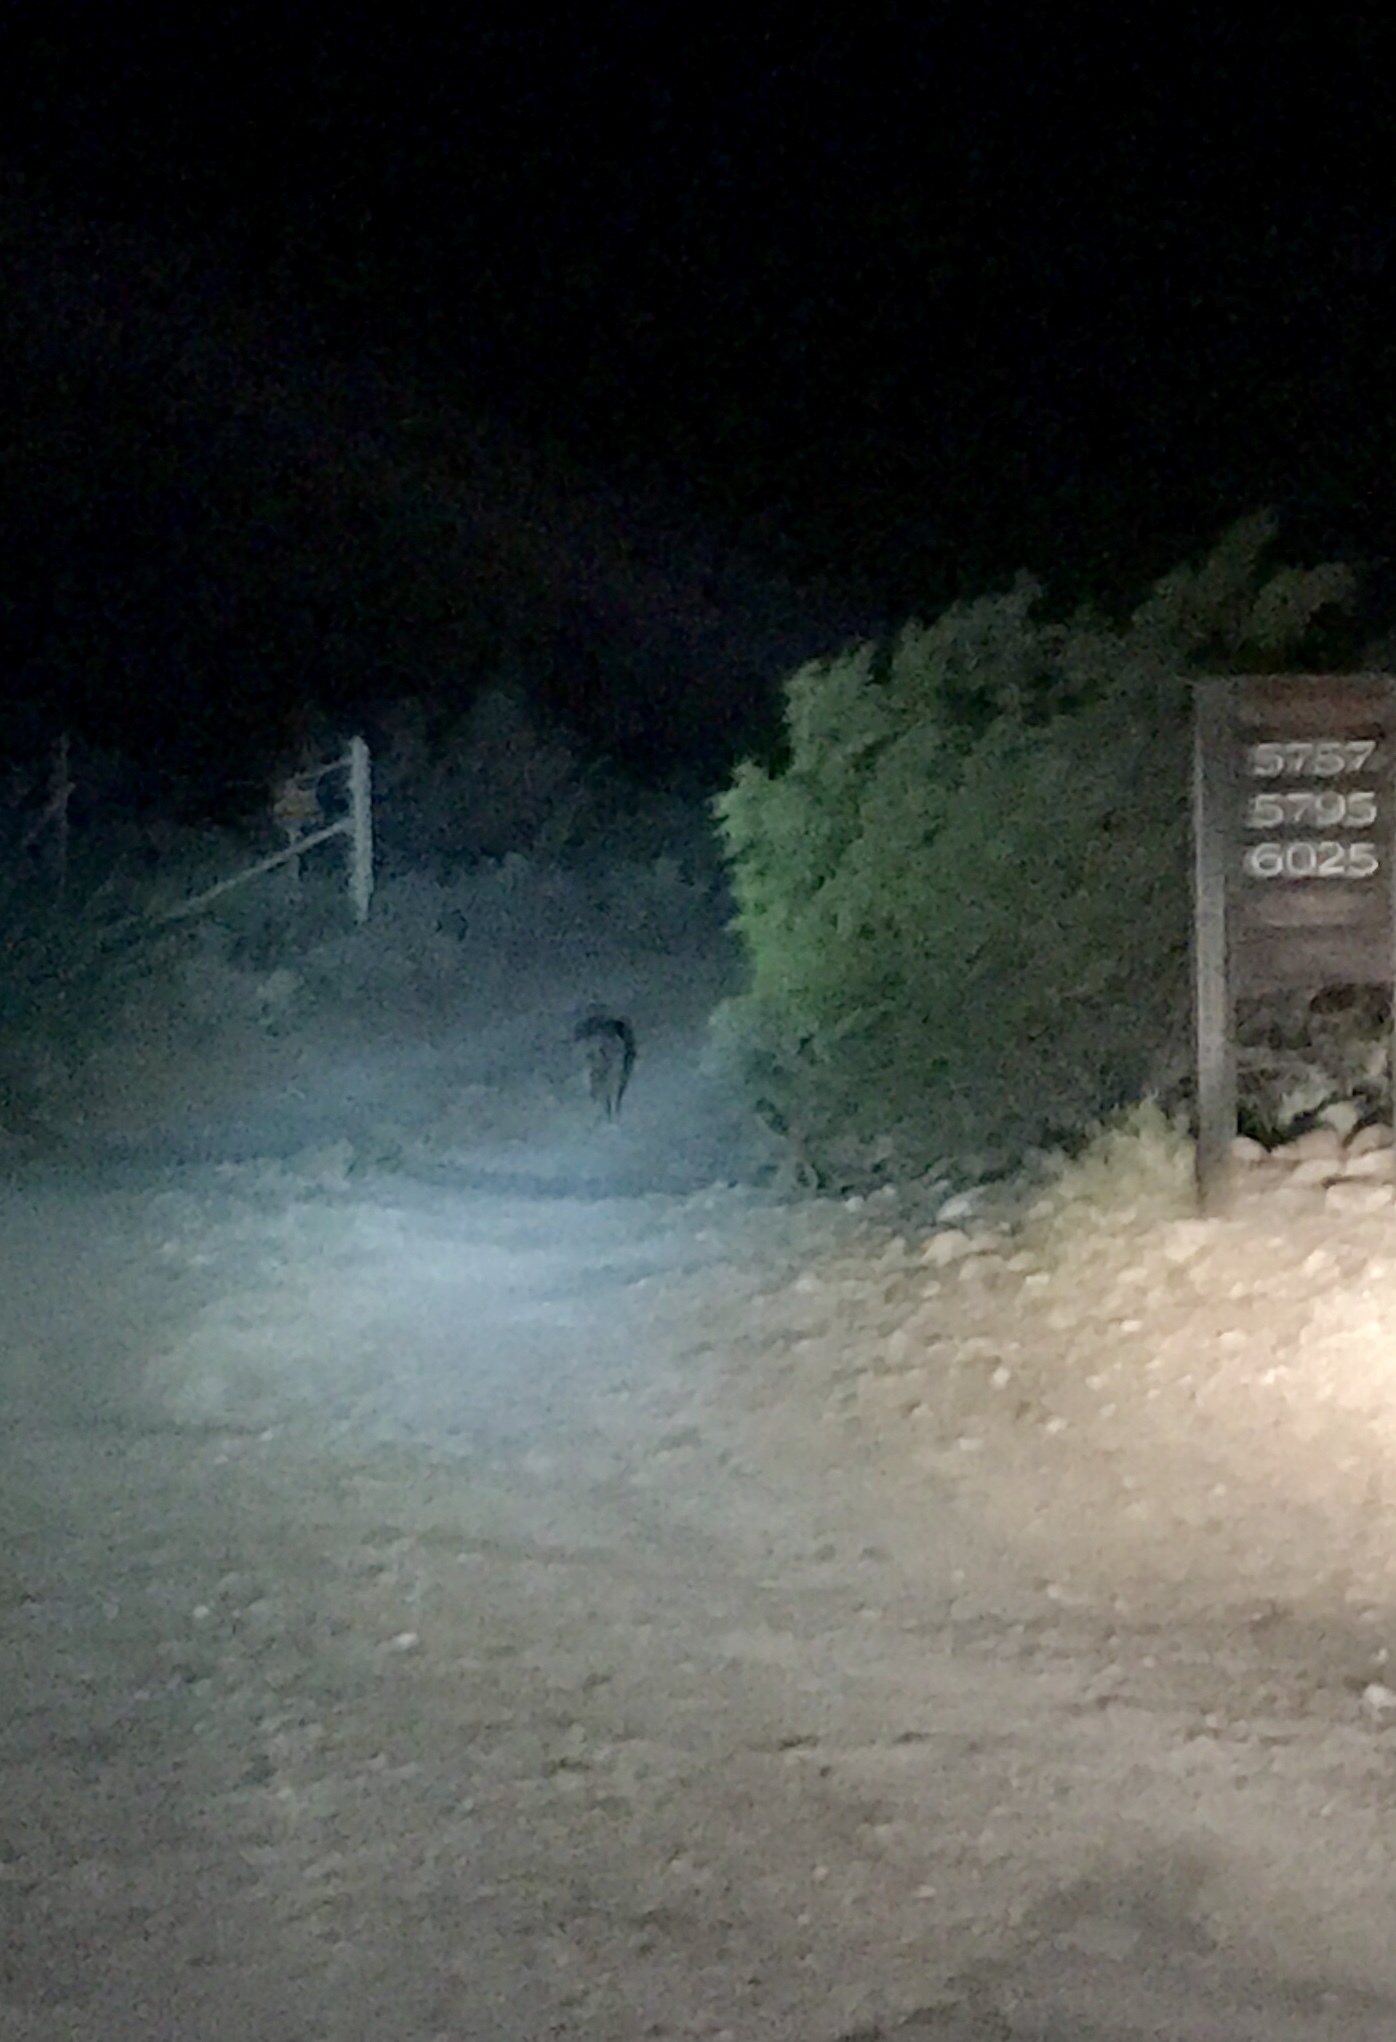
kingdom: Animalia
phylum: Chordata
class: Mammalia
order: Carnivora
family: Canidae
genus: Canis
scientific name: Canis latrans
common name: Coyote
